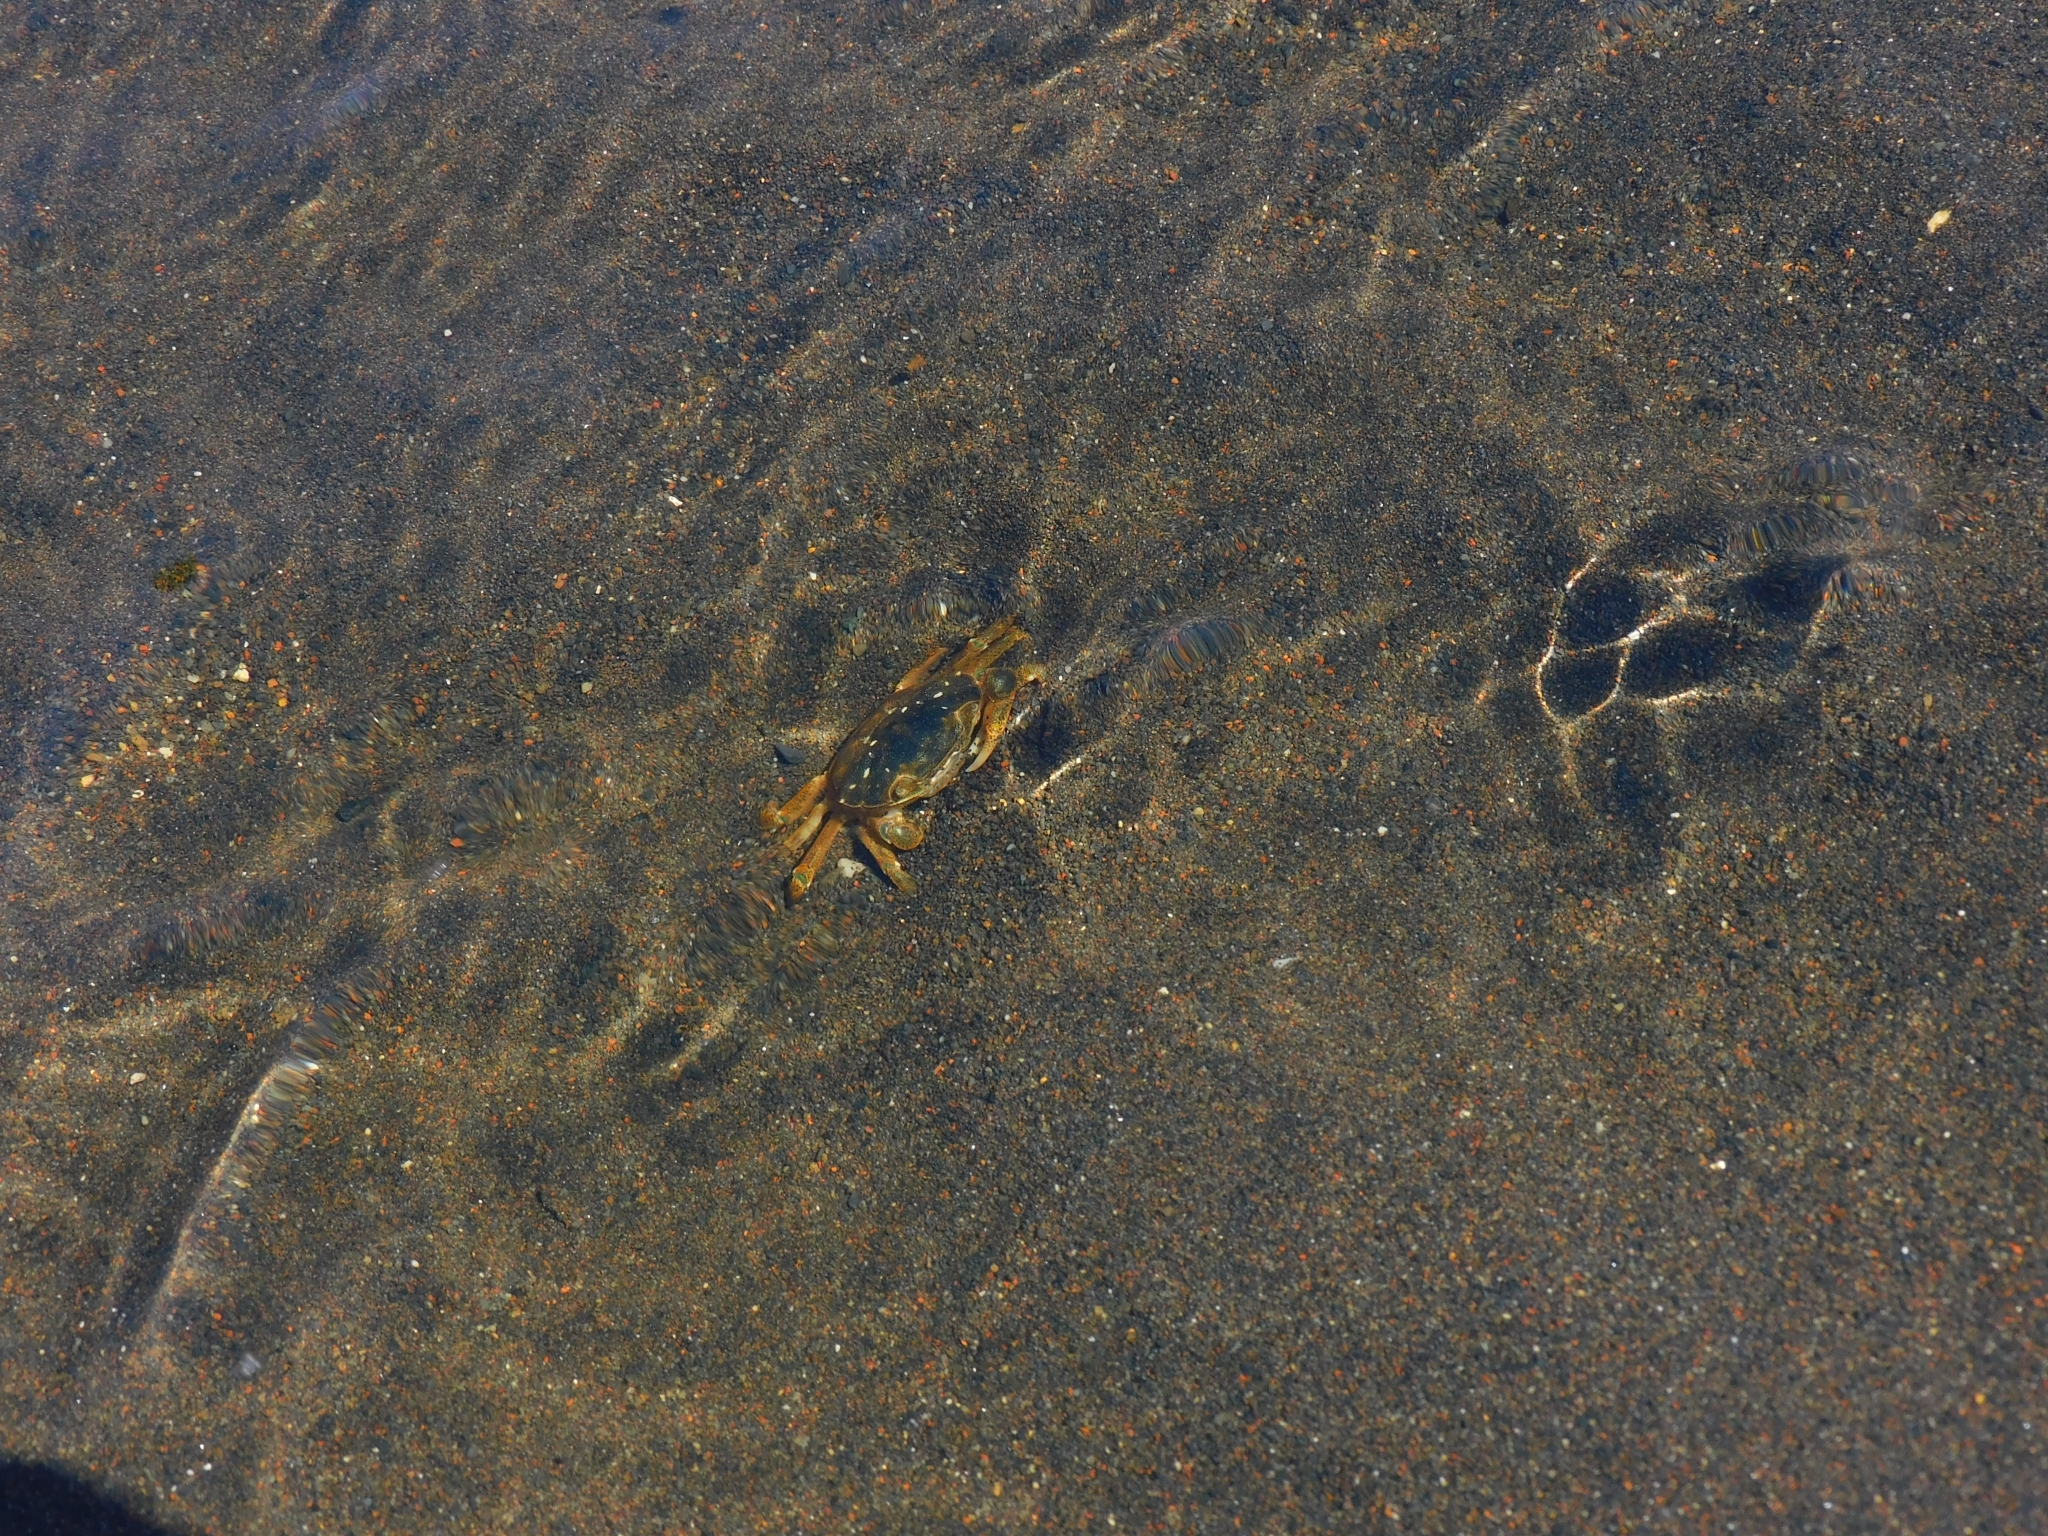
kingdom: Animalia
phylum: Arthropoda
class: Malacostraca
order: Decapoda
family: Varunidae
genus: Hemigrapsus
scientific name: Hemigrapsus crenulatus
